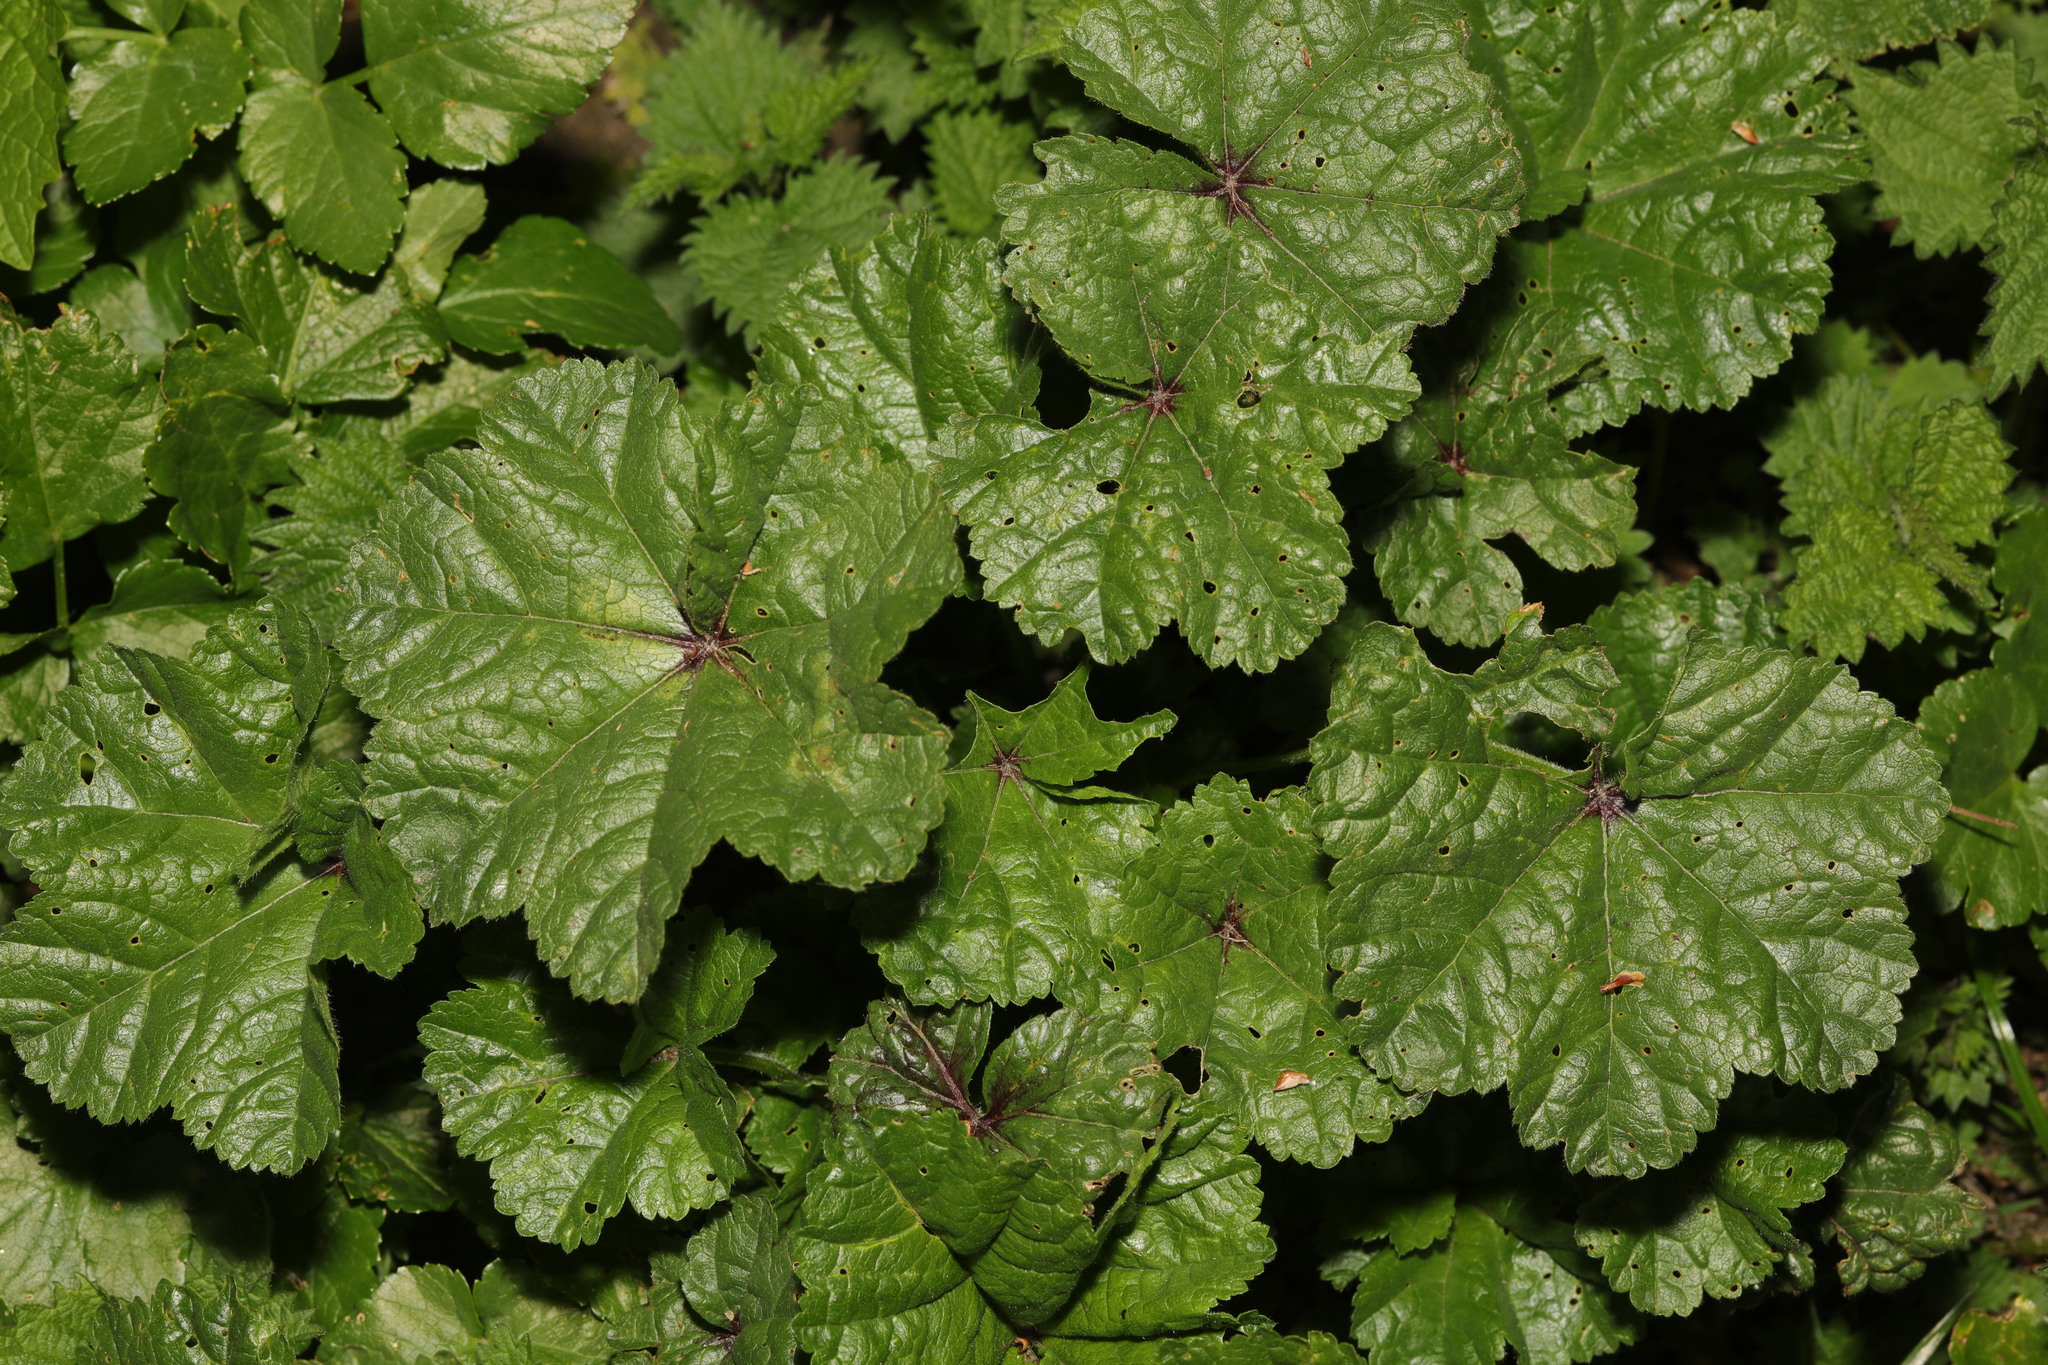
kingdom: Plantae
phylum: Tracheophyta
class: Magnoliopsida
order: Malvales
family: Malvaceae
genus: Malva
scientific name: Malva sylvestris
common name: Common mallow
